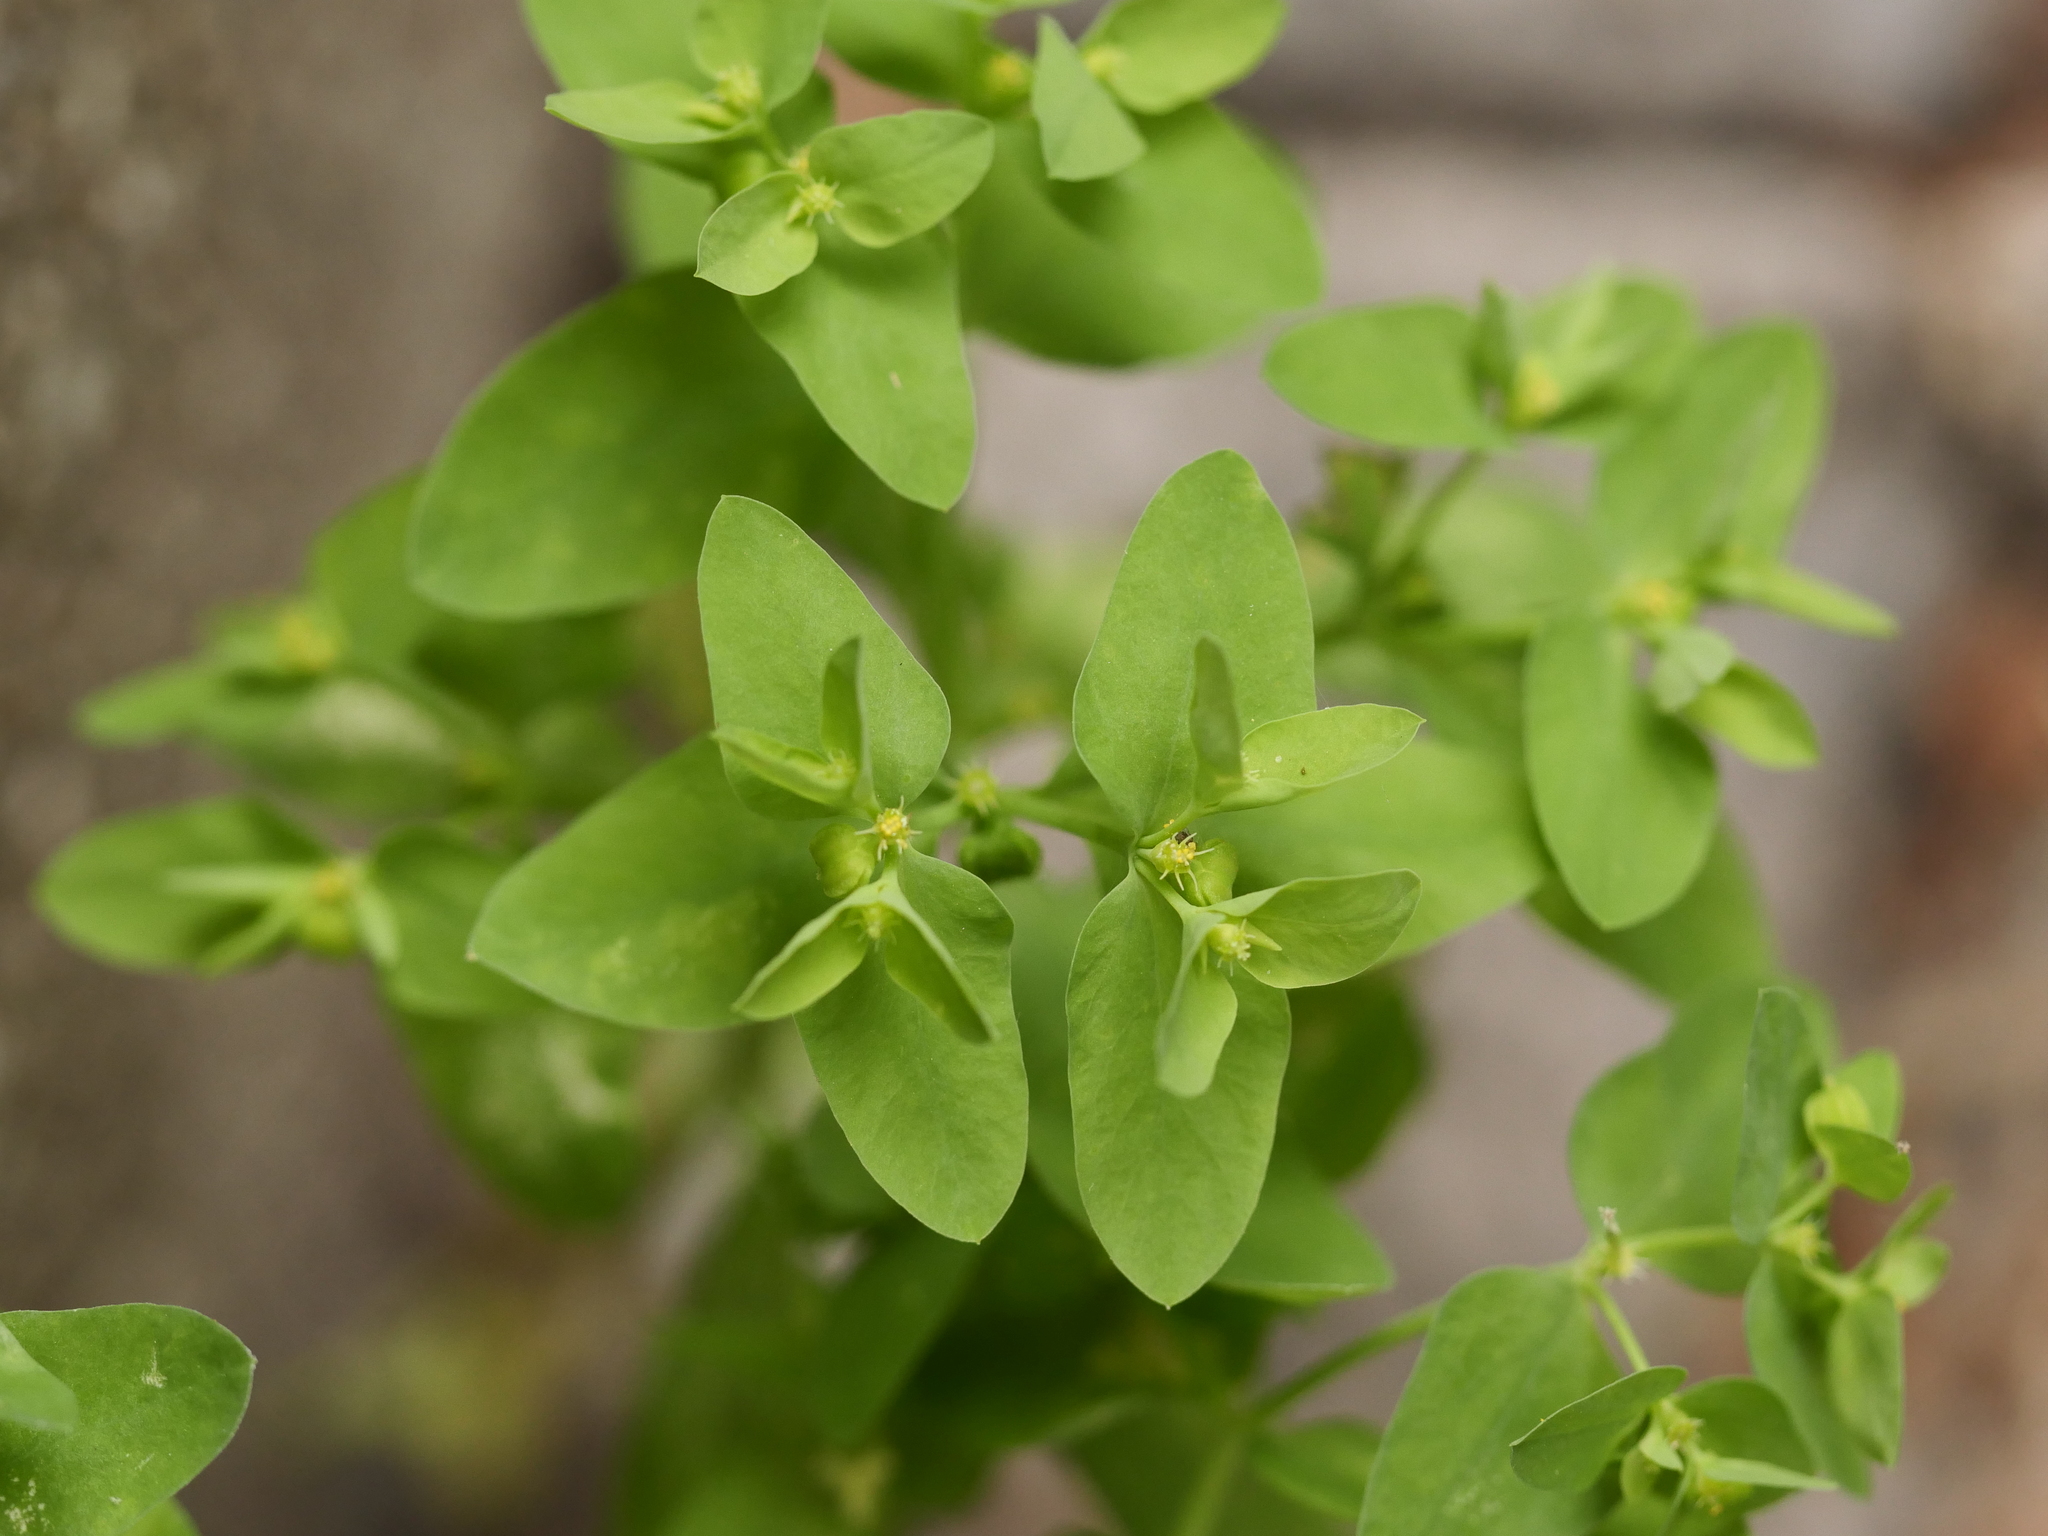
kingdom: Plantae
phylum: Tracheophyta
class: Magnoliopsida
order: Malpighiales
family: Euphorbiaceae
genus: Euphorbia
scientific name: Euphorbia peplus
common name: Petty spurge
